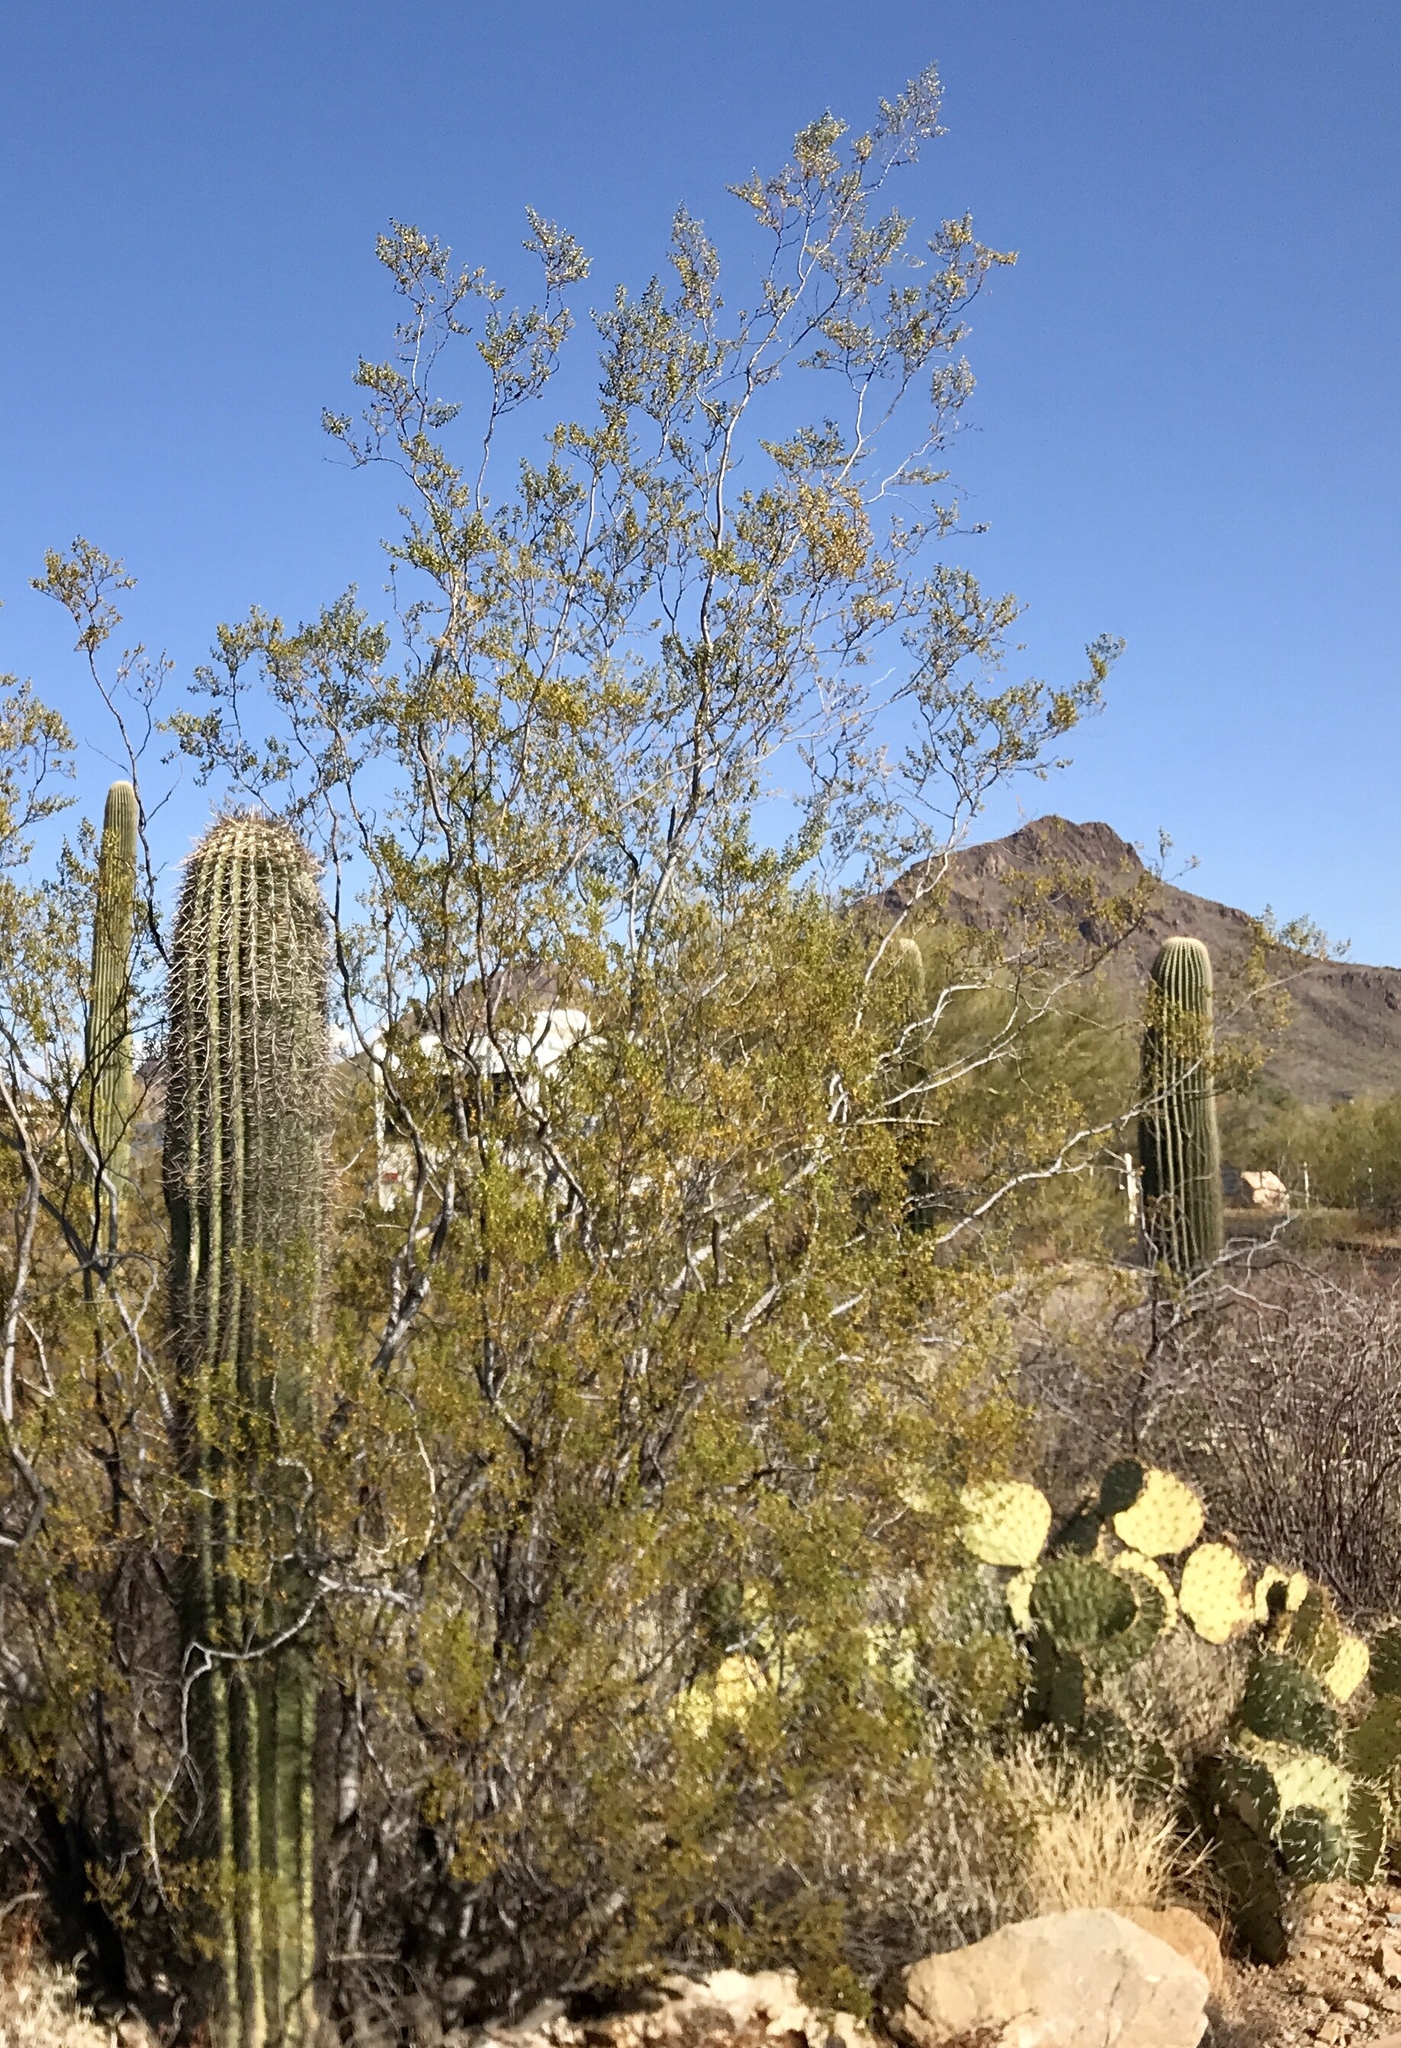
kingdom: Plantae
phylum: Tracheophyta
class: Magnoliopsida
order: Zygophyllales
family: Zygophyllaceae
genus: Larrea
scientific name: Larrea tridentata
